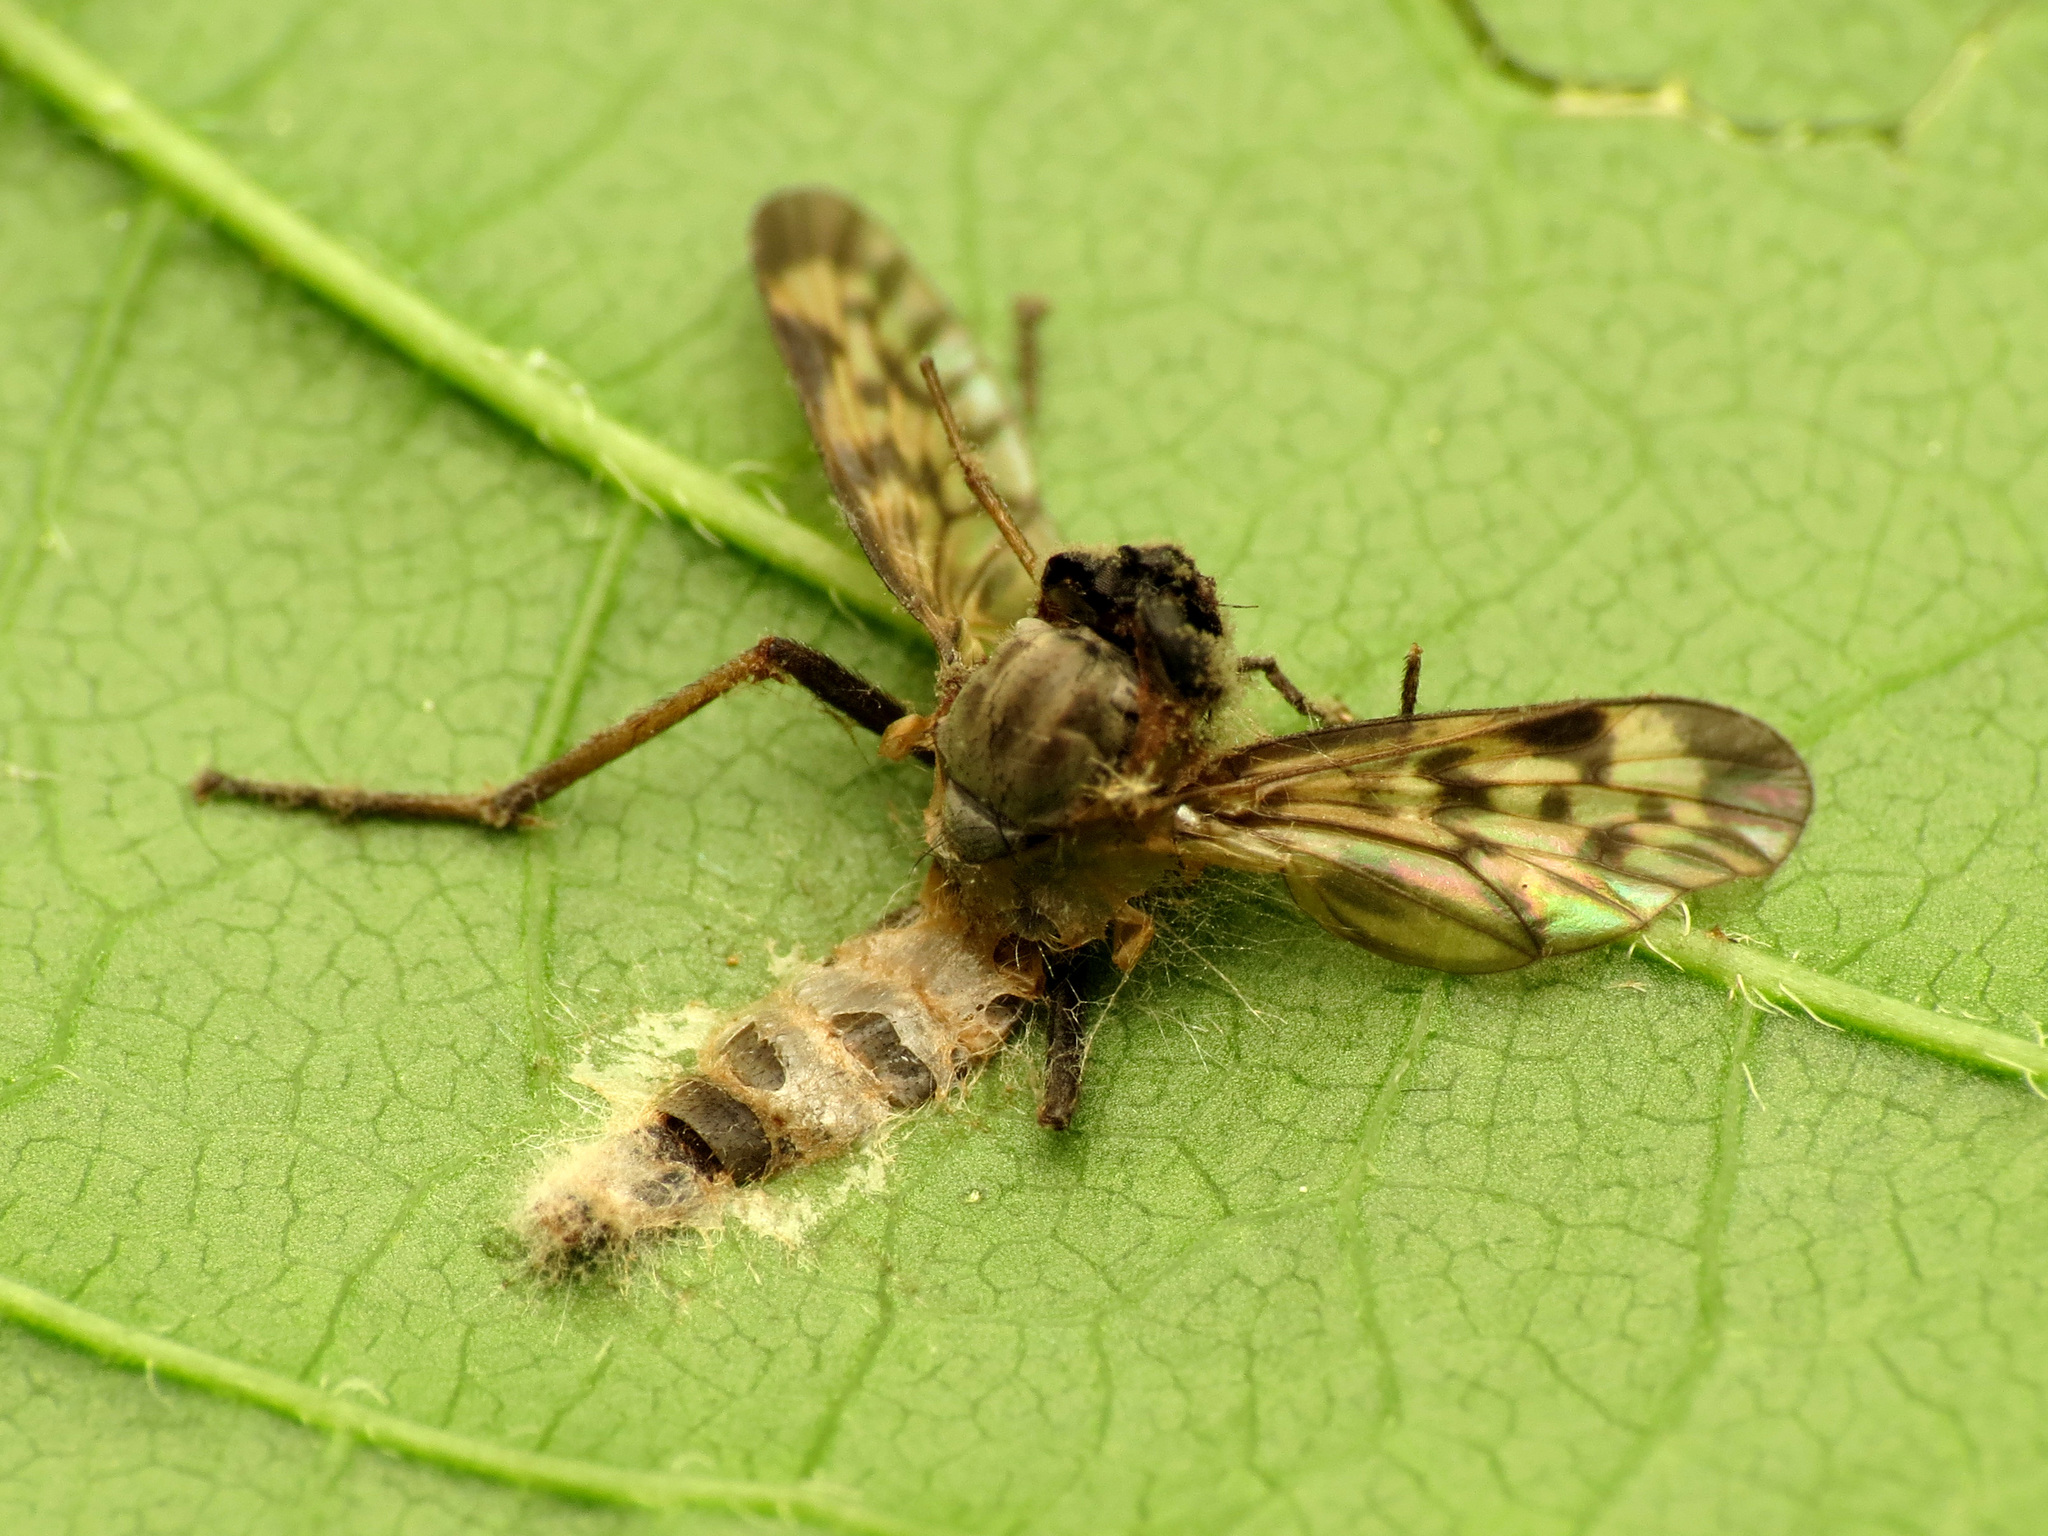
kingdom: Fungi
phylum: Entomophthoromycota
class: Entomophthoromycetes
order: Entomophthorales
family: Entomophthoraceae
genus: Furia
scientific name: Furia ithacensis
